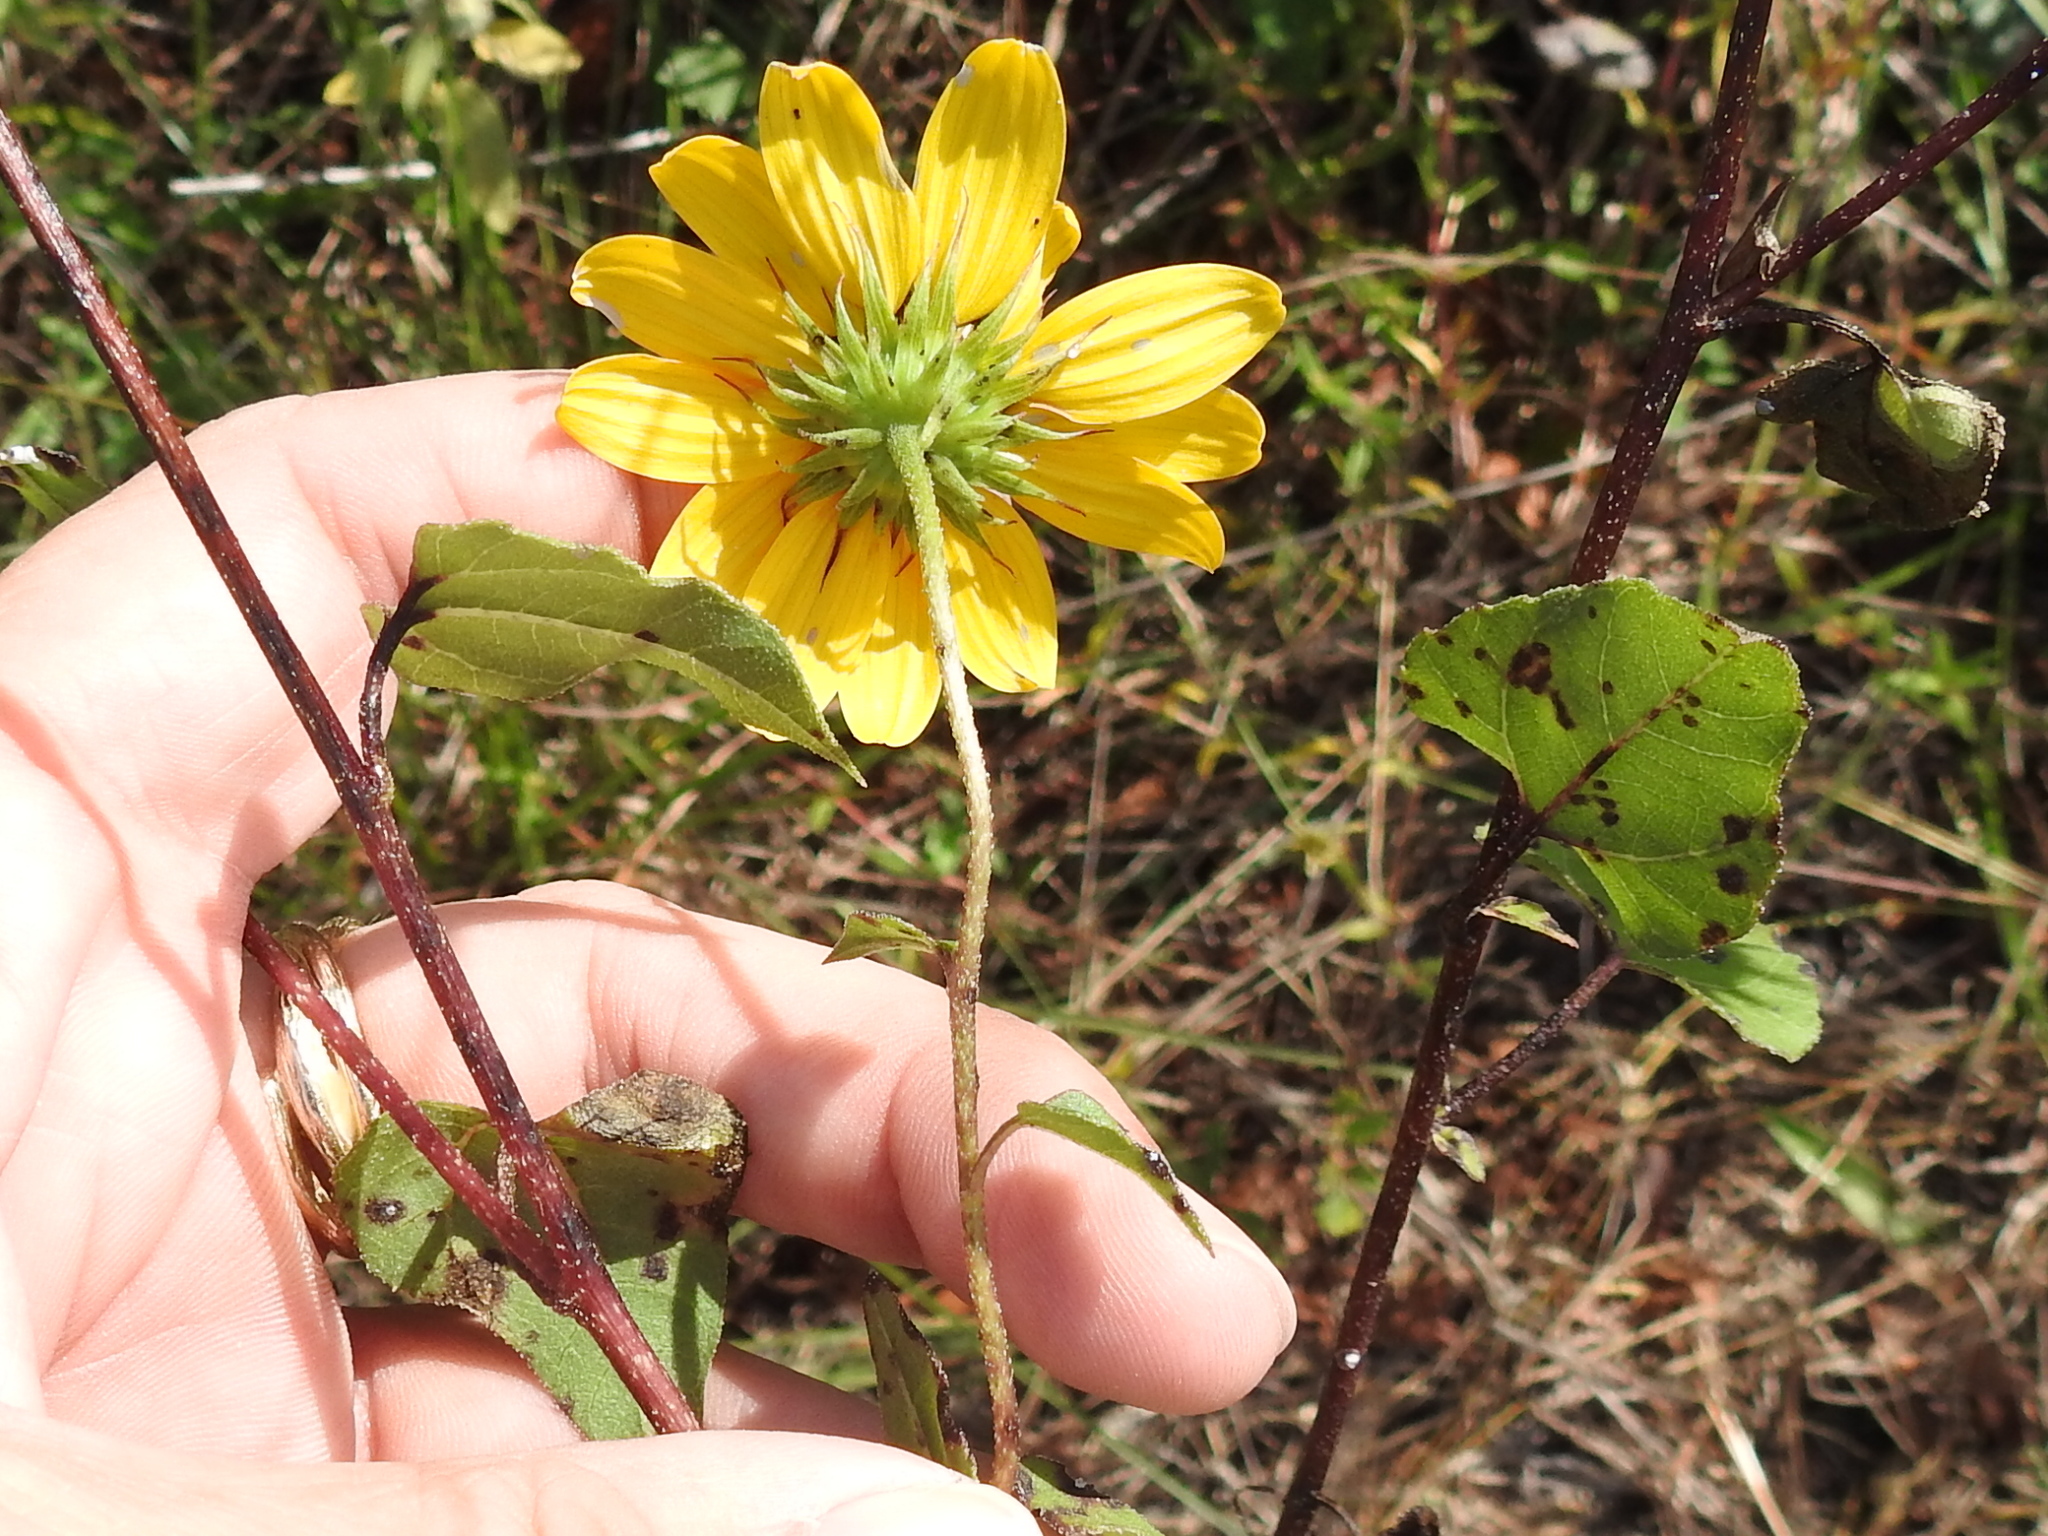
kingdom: Plantae
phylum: Tracheophyta
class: Magnoliopsida
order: Asterales
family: Asteraceae
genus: Helianthus
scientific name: Helianthus debilis
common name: Weak sunflower
